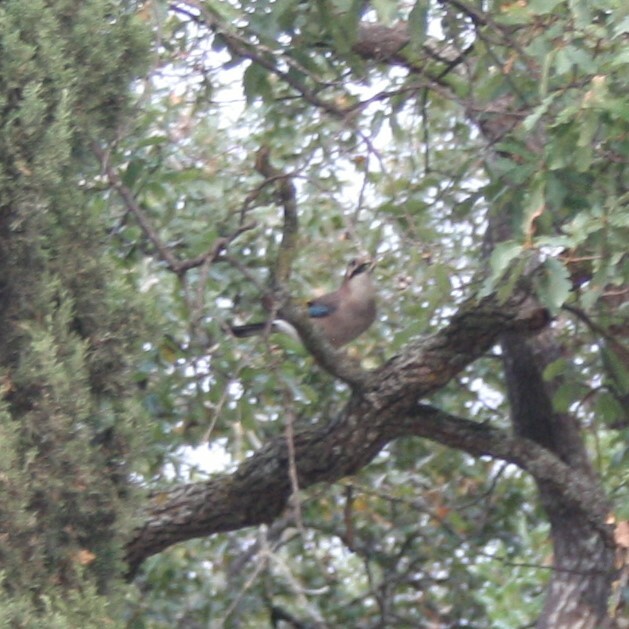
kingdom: Animalia
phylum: Chordata
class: Aves
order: Passeriformes
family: Corvidae
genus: Garrulus
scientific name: Garrulus glandarius
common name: Eurasian jay
